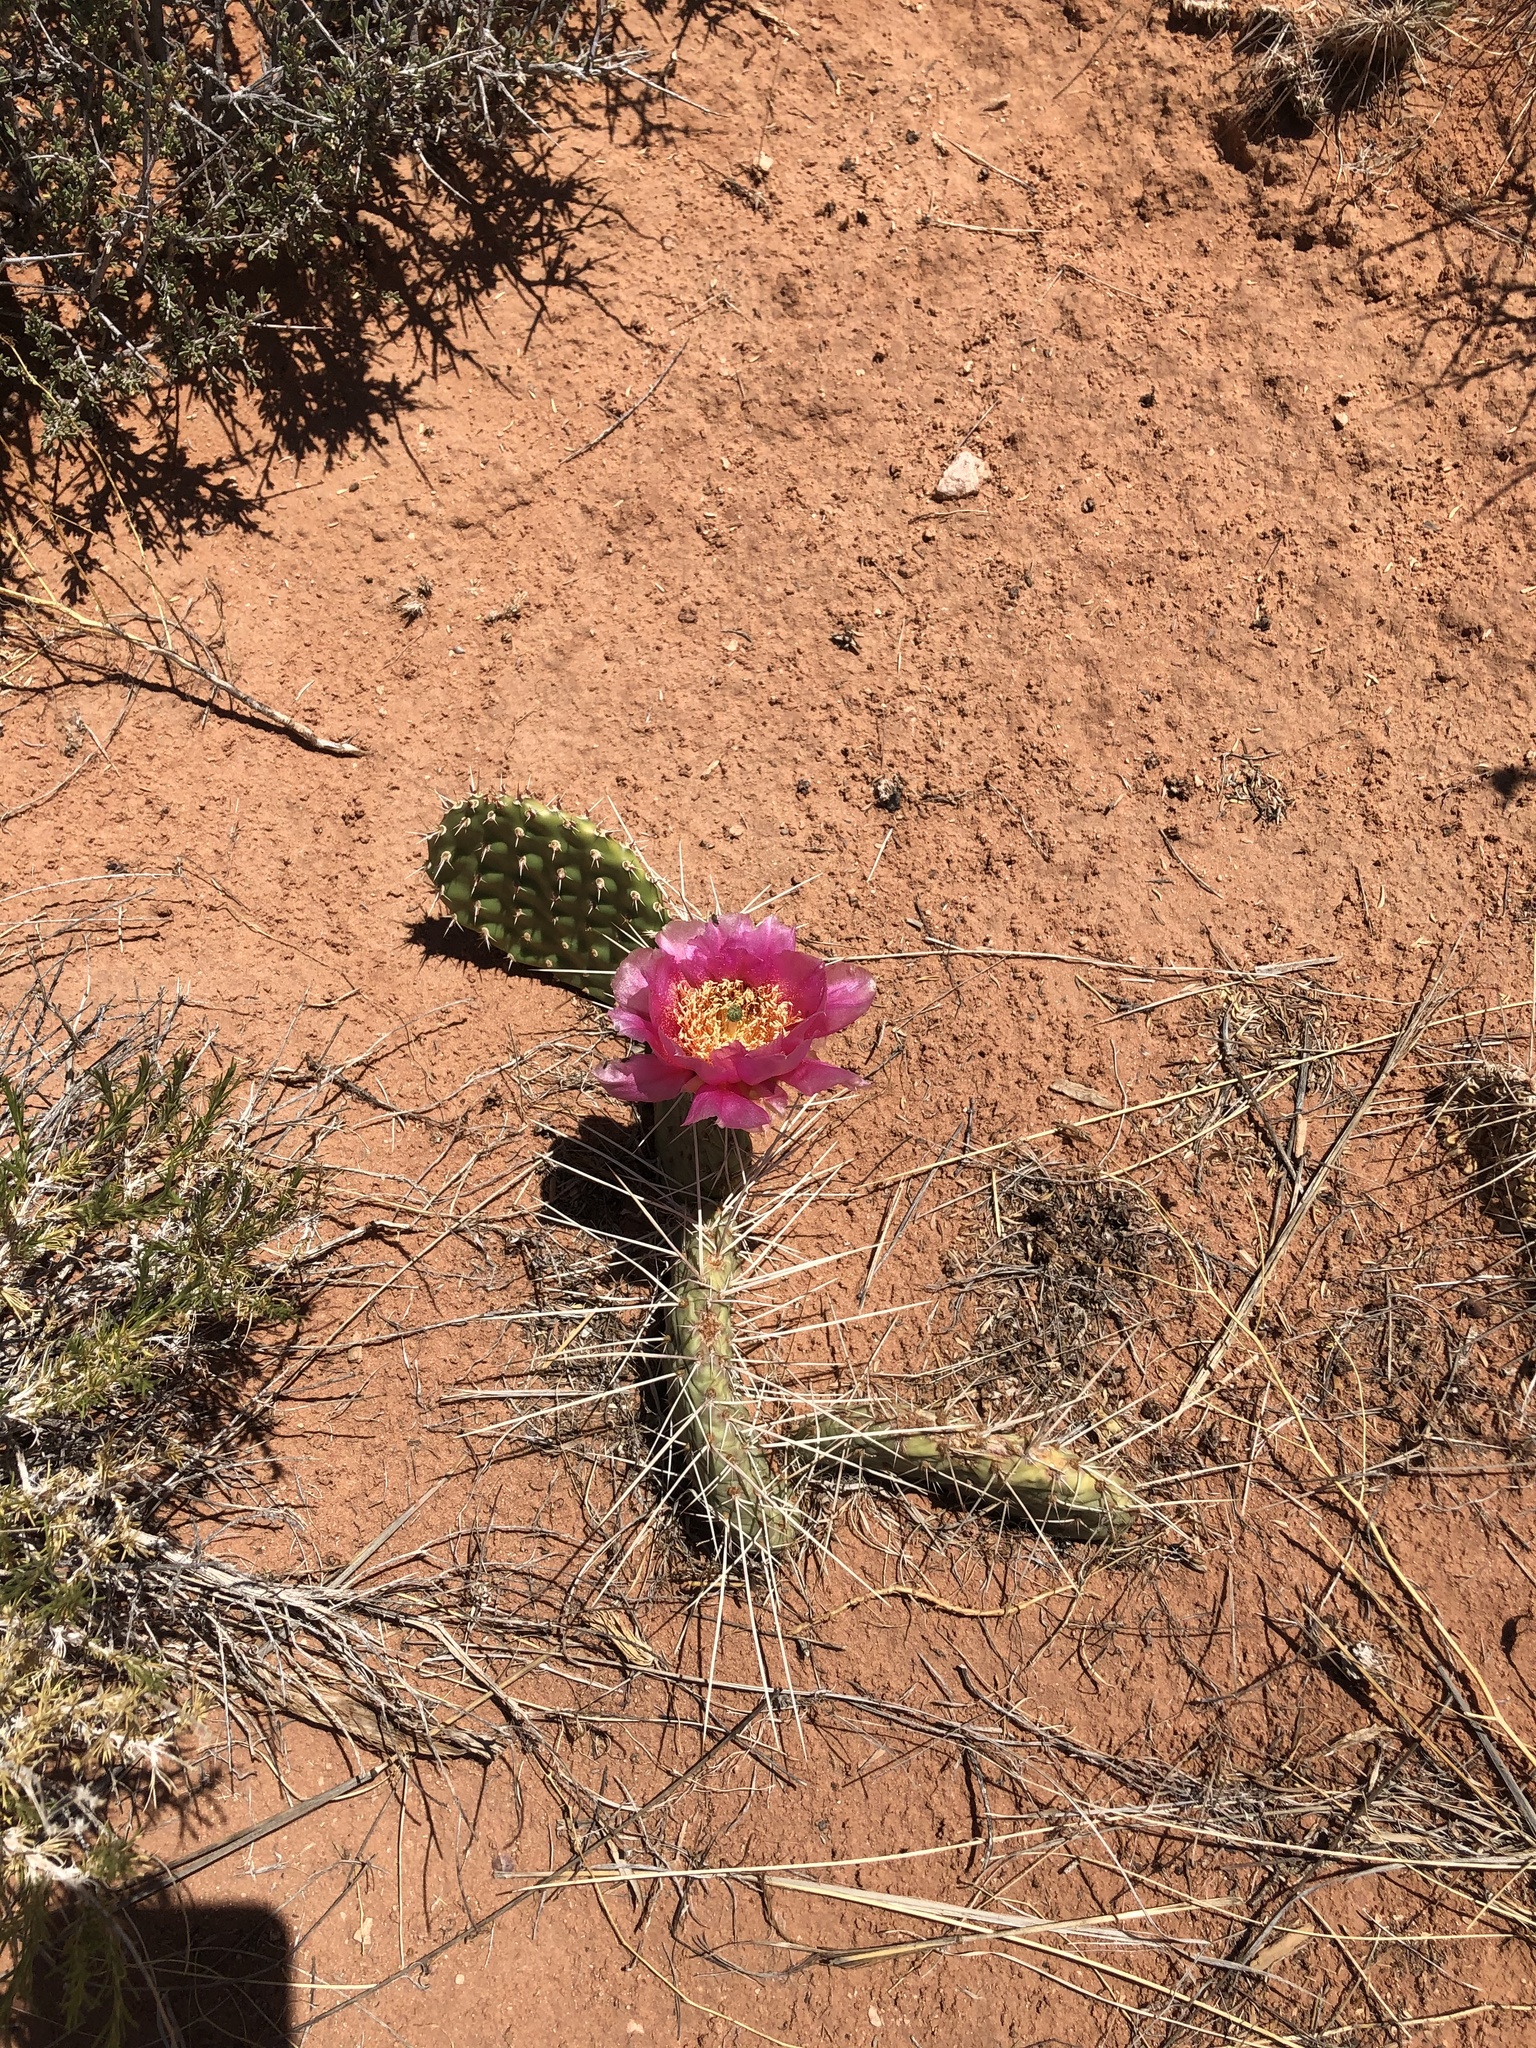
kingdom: Plantae
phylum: Tracheophyta
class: Magnoliopsida
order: Caryophyllales
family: Cactaceae
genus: Opuntia
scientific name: Opuntia polyacantha
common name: Plains prickly-pear
